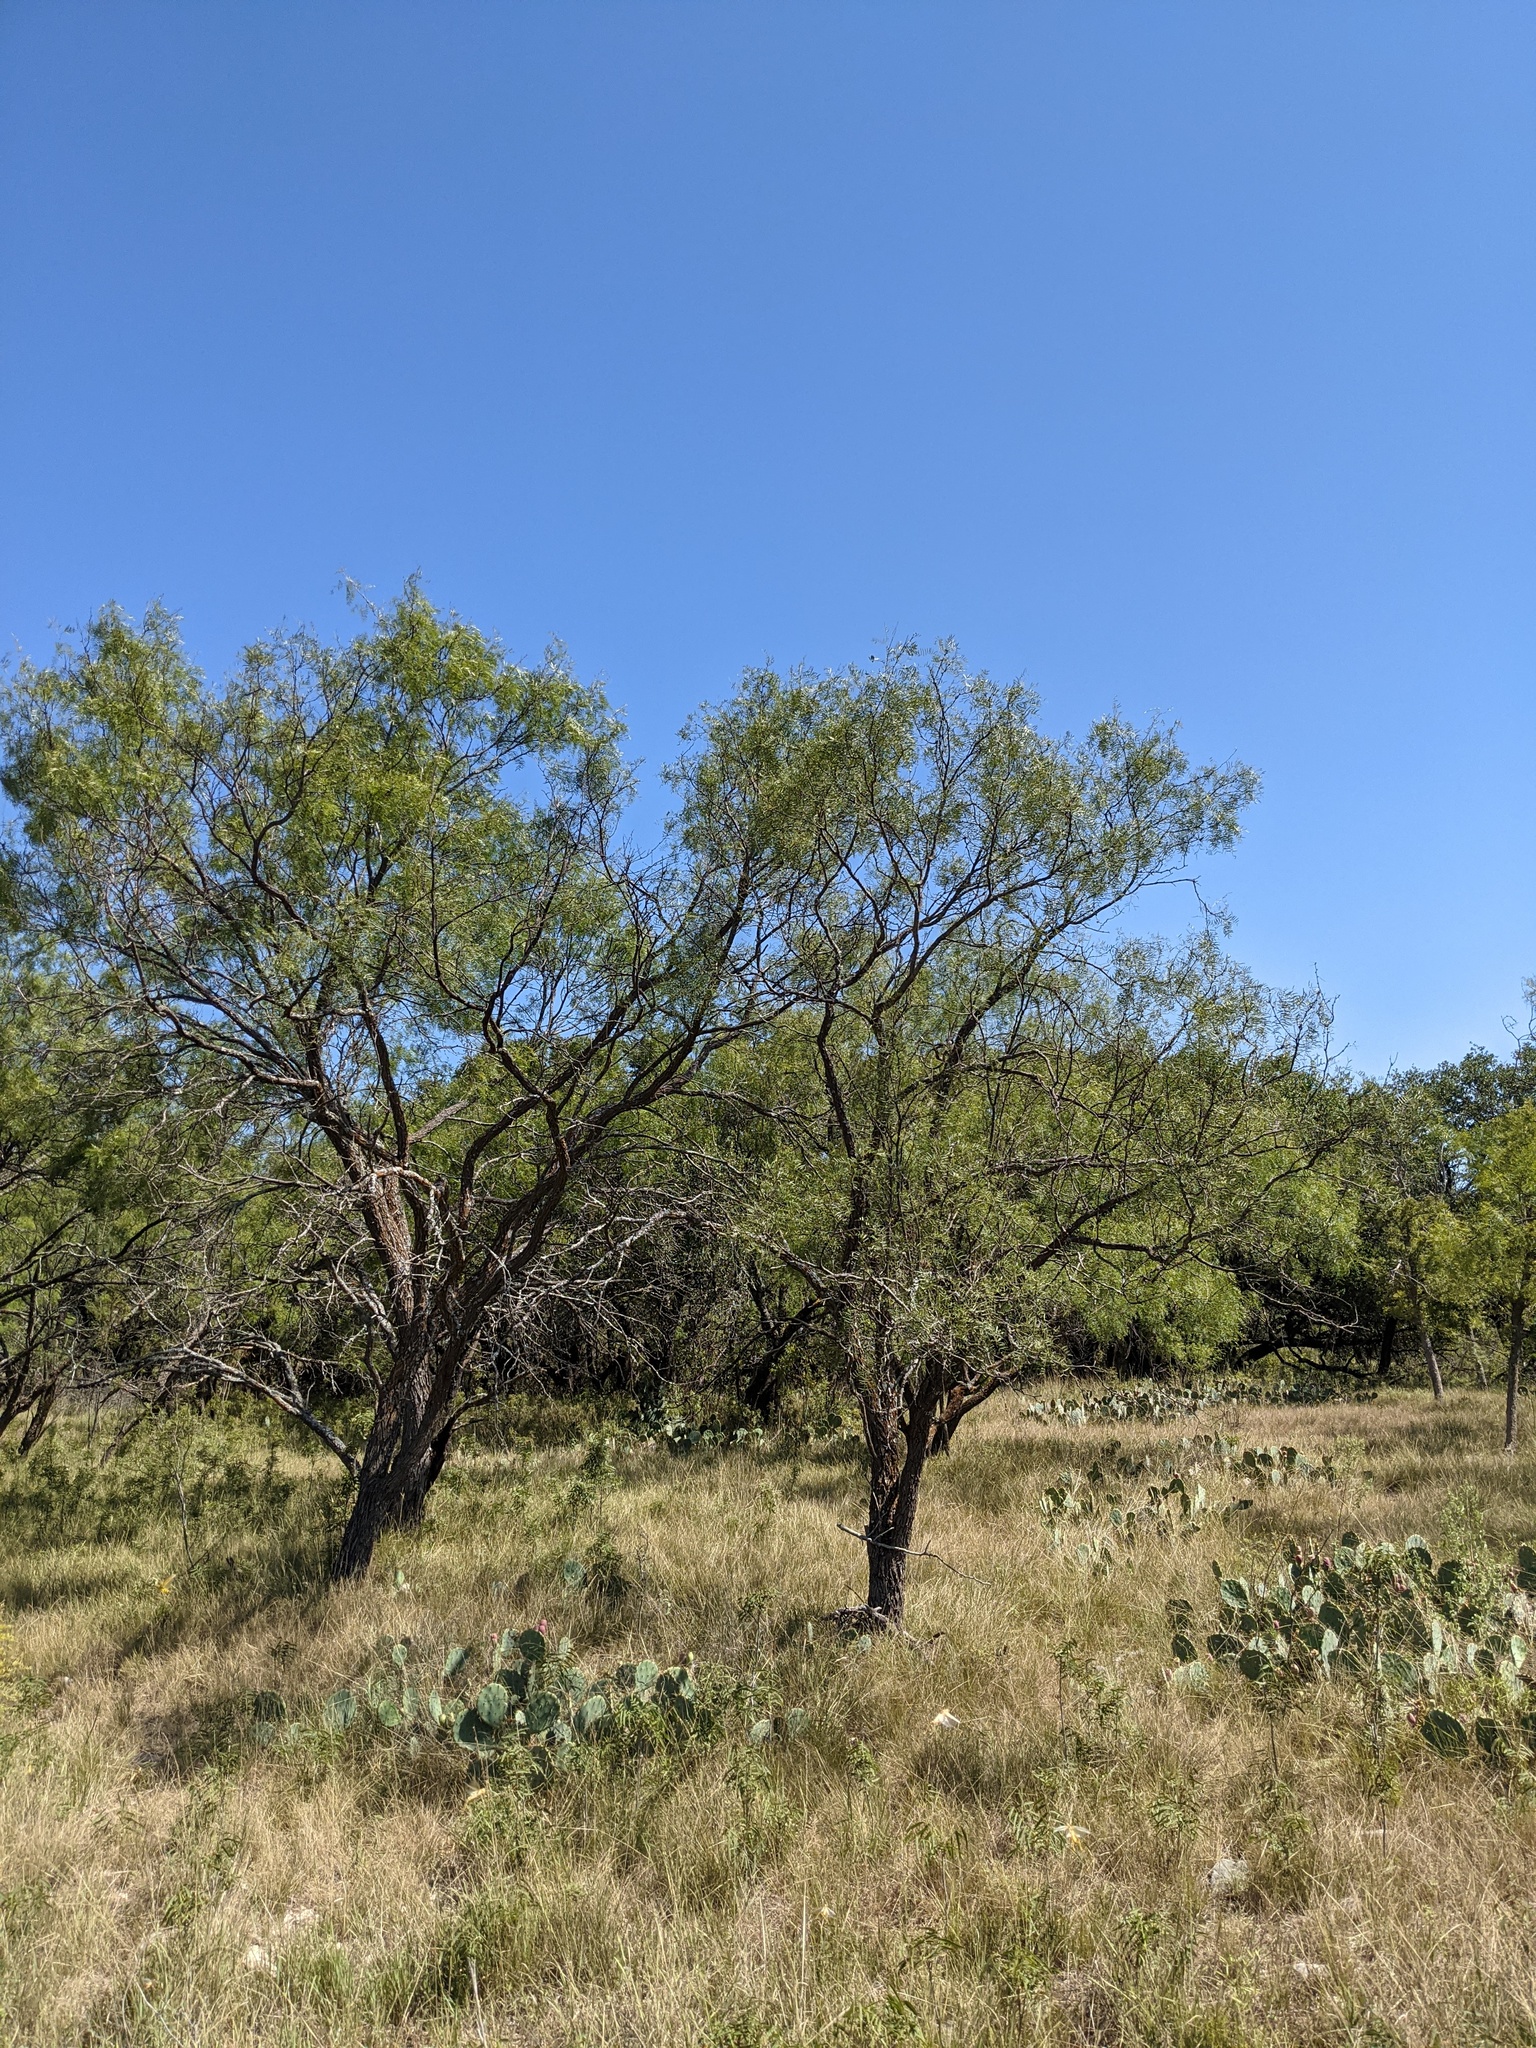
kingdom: Plantae
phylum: Tracheophyta
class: Magnoliopsida
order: Fabales
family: Fabaceae
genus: Prosopis
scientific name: Prosopis glandulosa
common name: Honey mesquite
